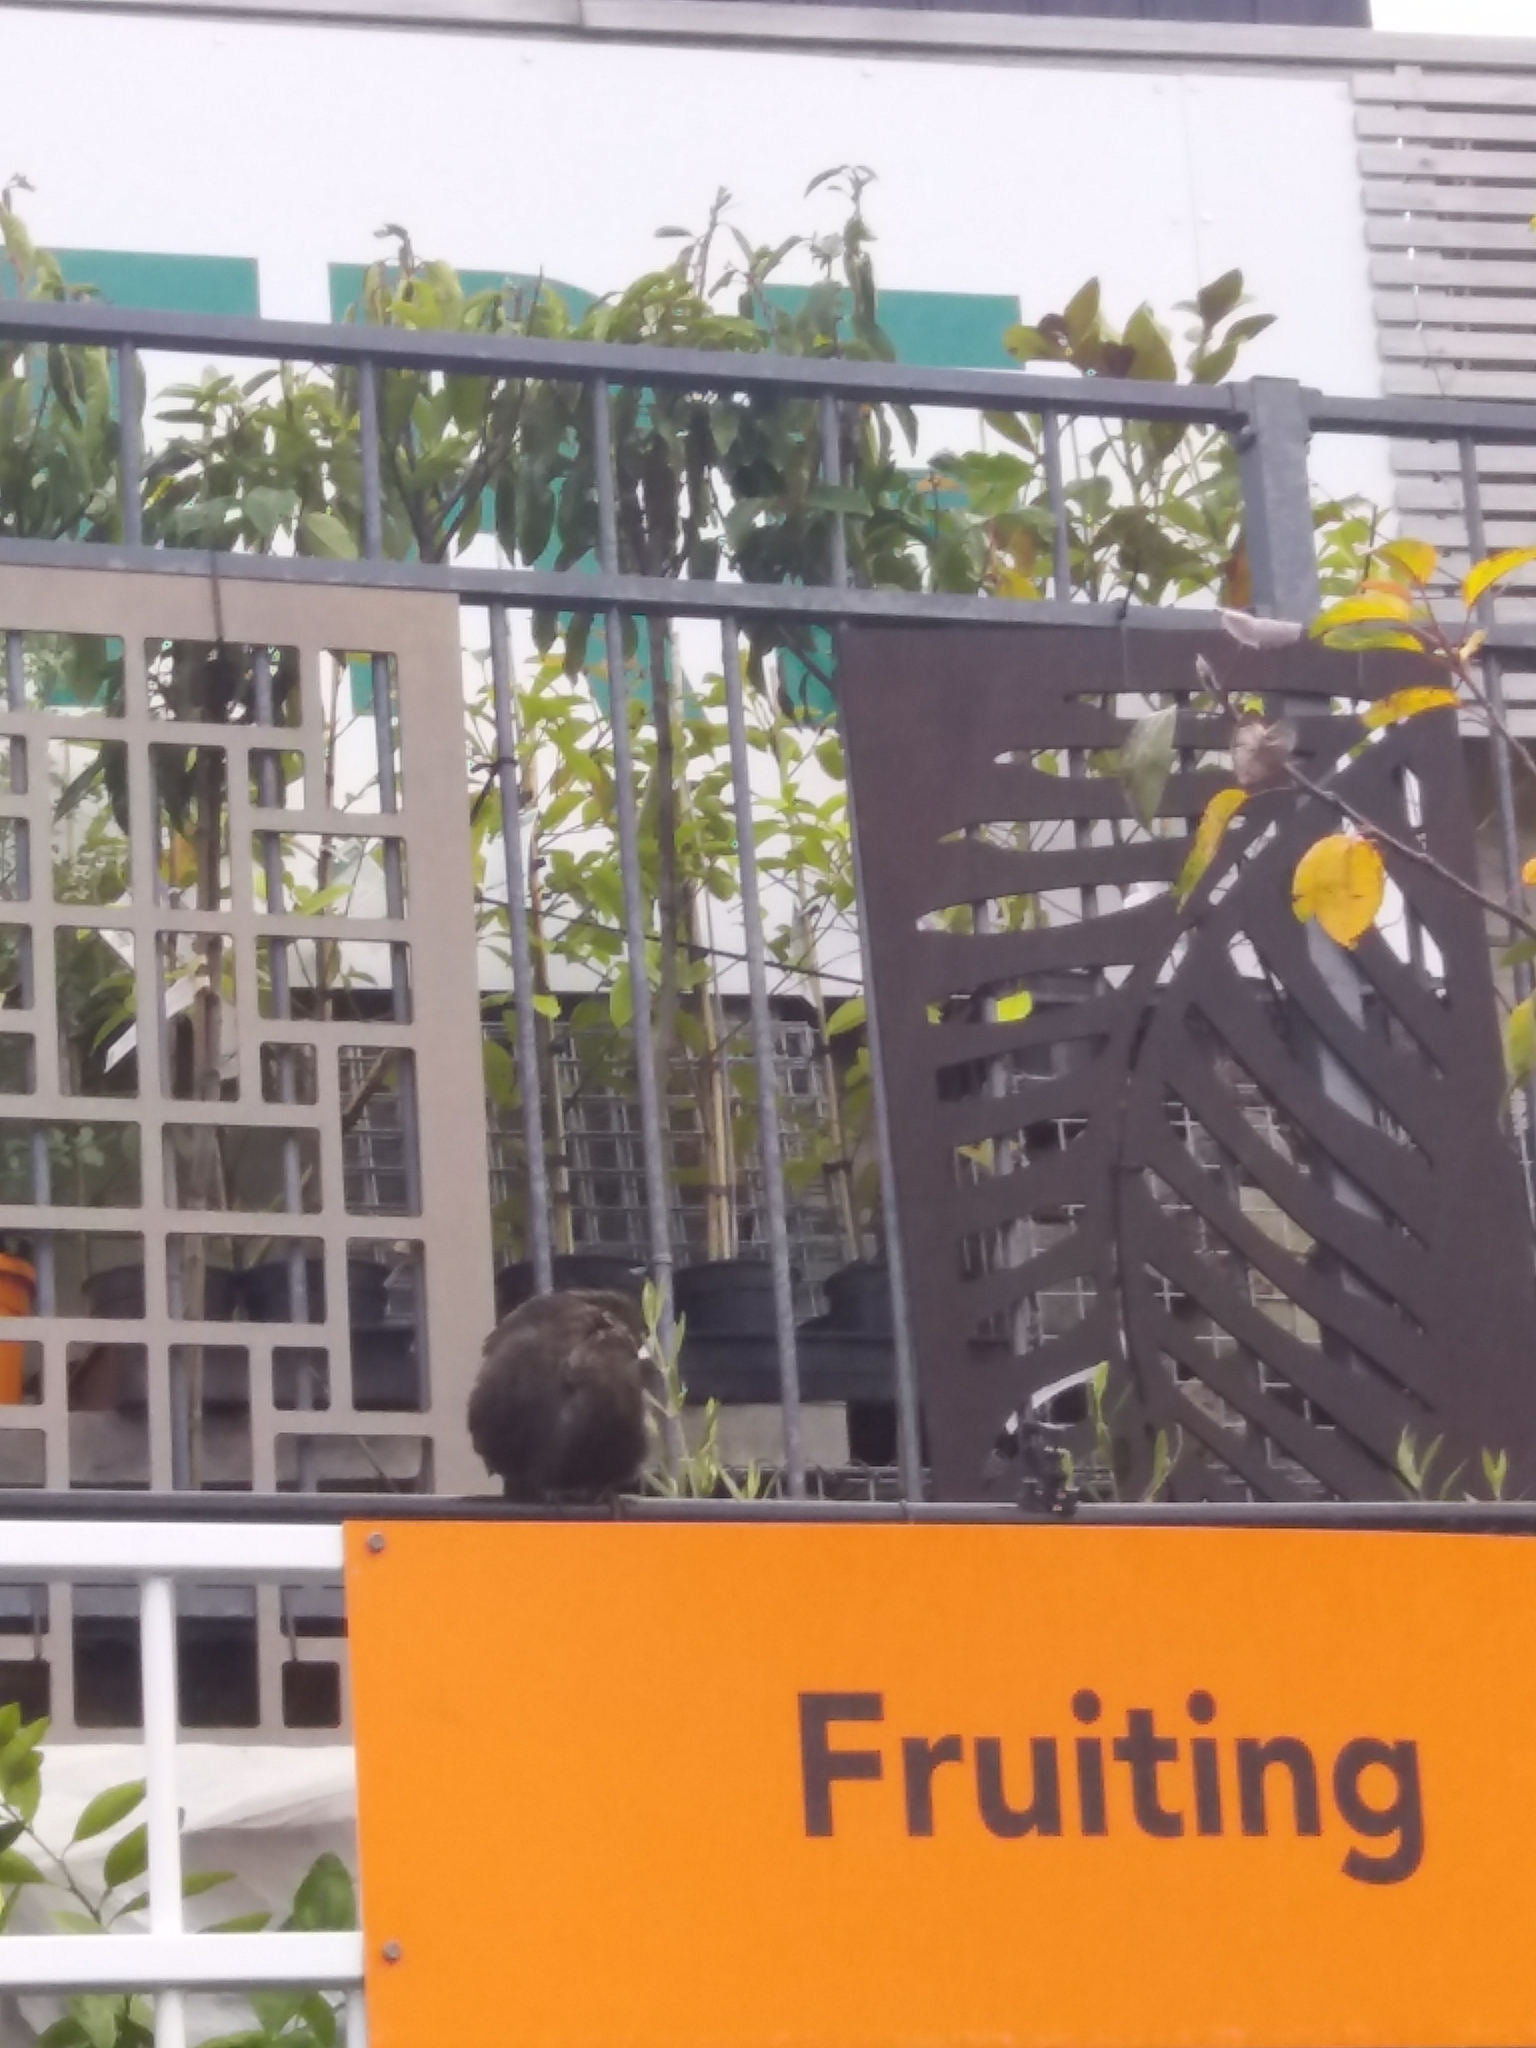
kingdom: Animalia
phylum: Chordata
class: Aves
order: Passeriformes
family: Turdidae
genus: Turdus
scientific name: Turdus merula
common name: Common blackbird
